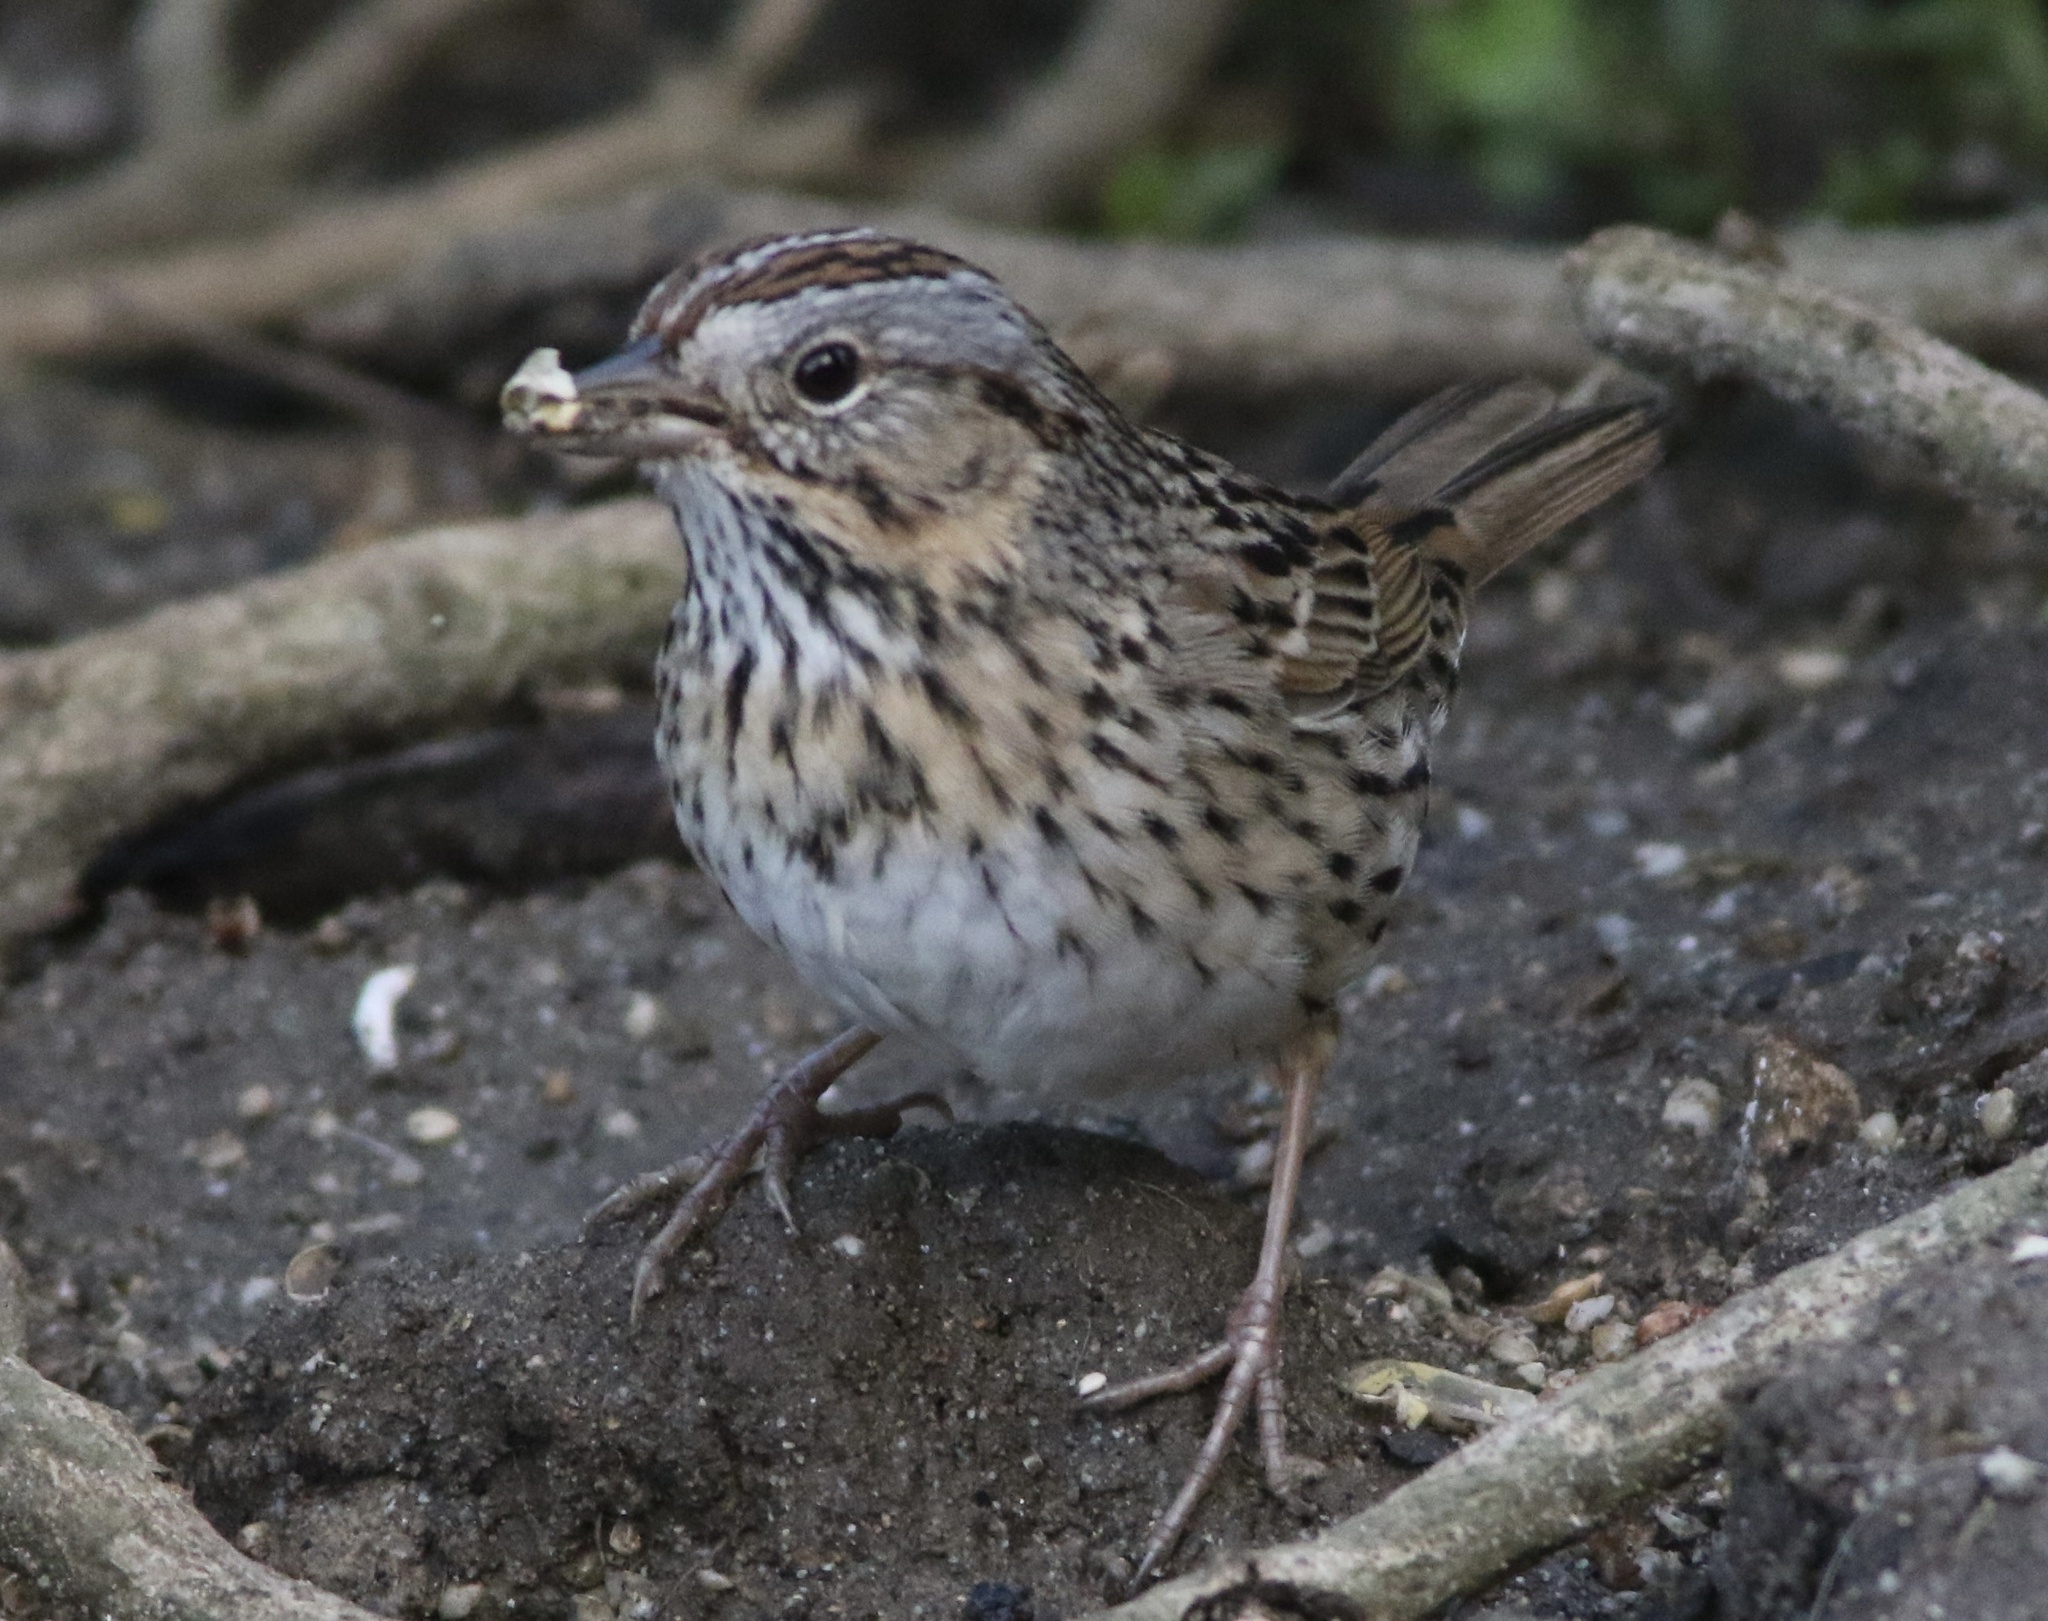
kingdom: Animalia
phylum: Chordata
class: Aves
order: Passeriformes
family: Passerellidae
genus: Melospiza
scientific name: Melospiza lincolnii
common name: Lincoln's sparrow
